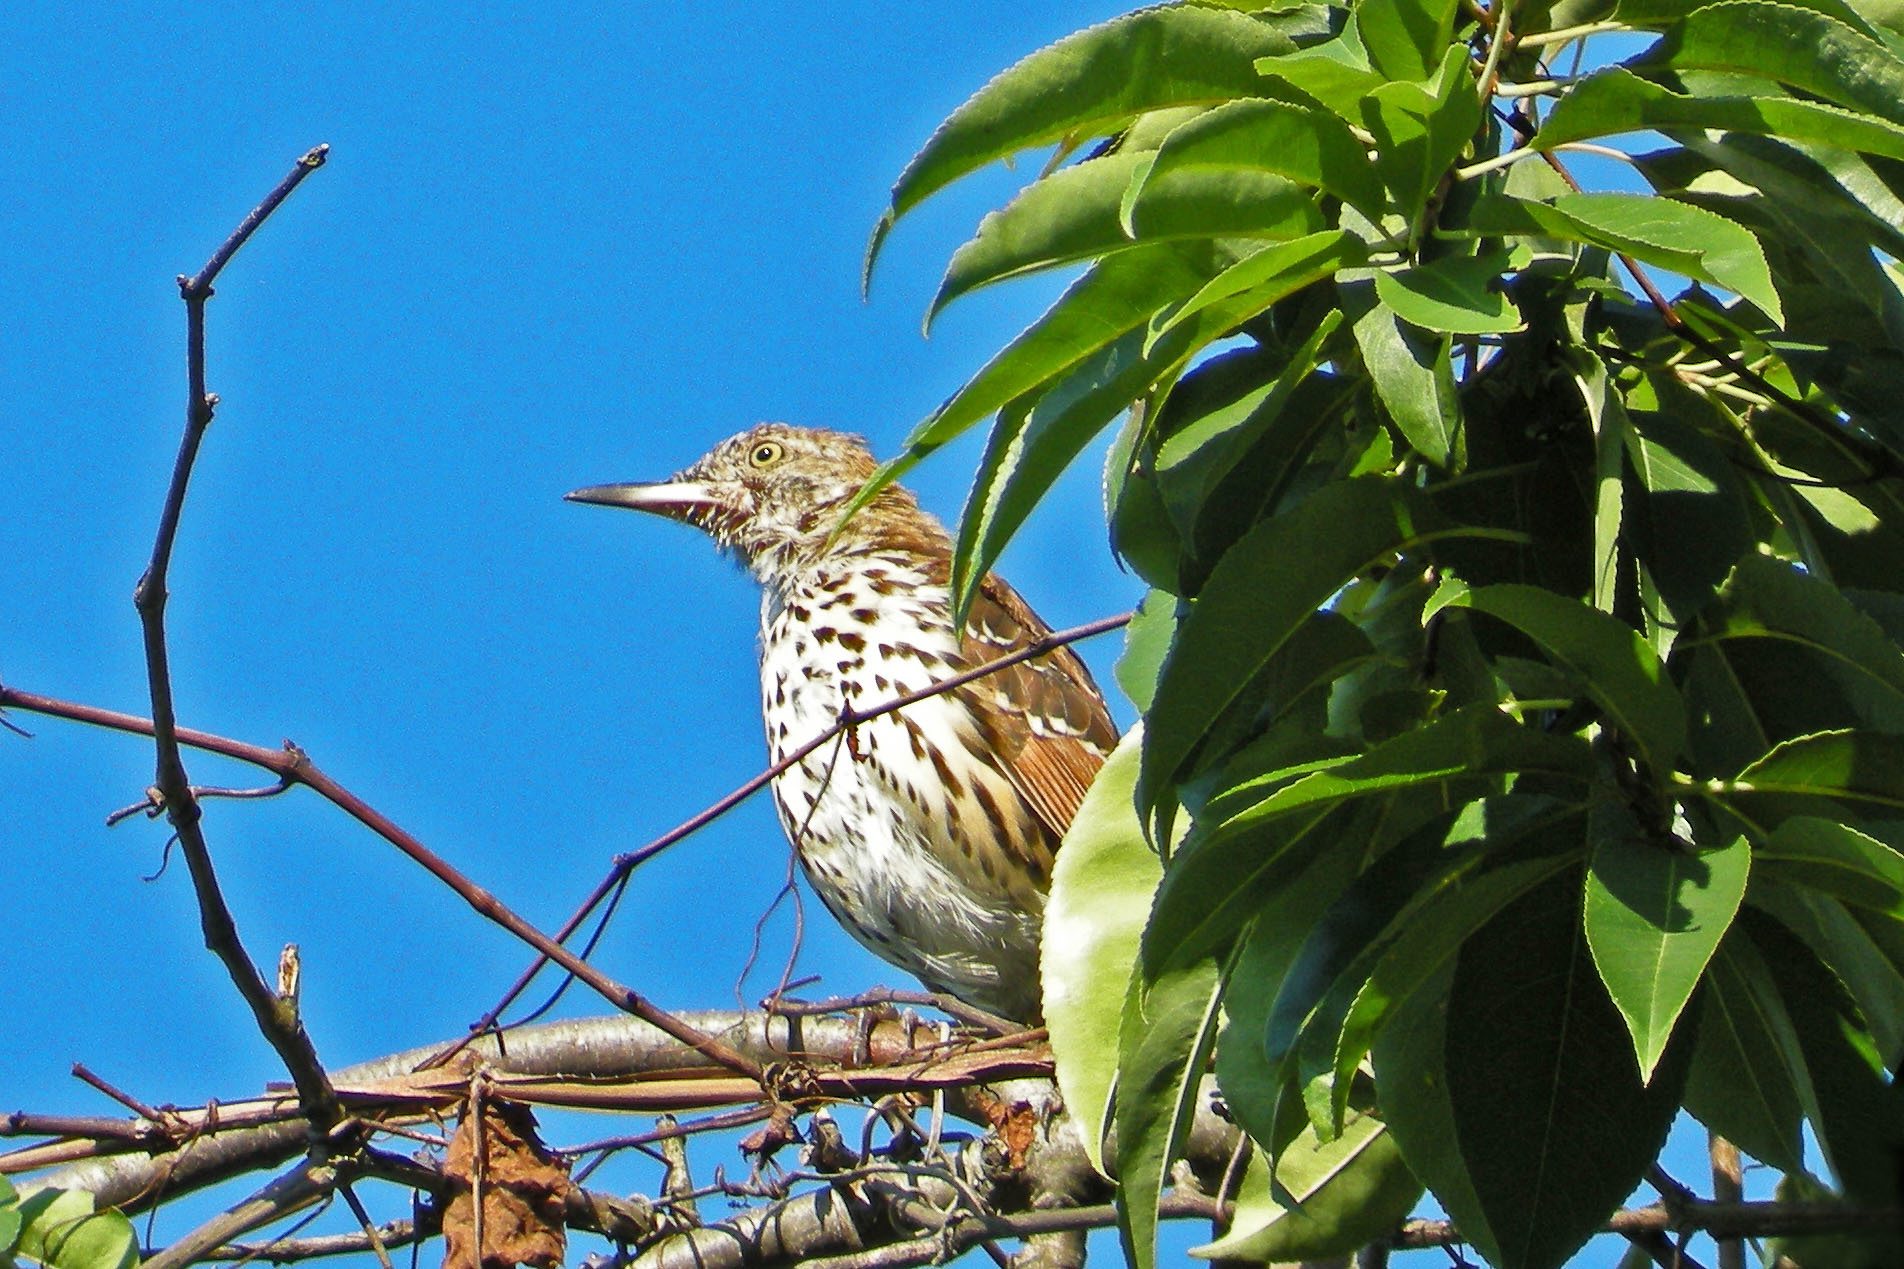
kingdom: Animalia
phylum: Chordata
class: Aves
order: Passeriformes
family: Mimidae
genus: Toxostoma
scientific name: Toxostoma rufum
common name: Brown thrasher
